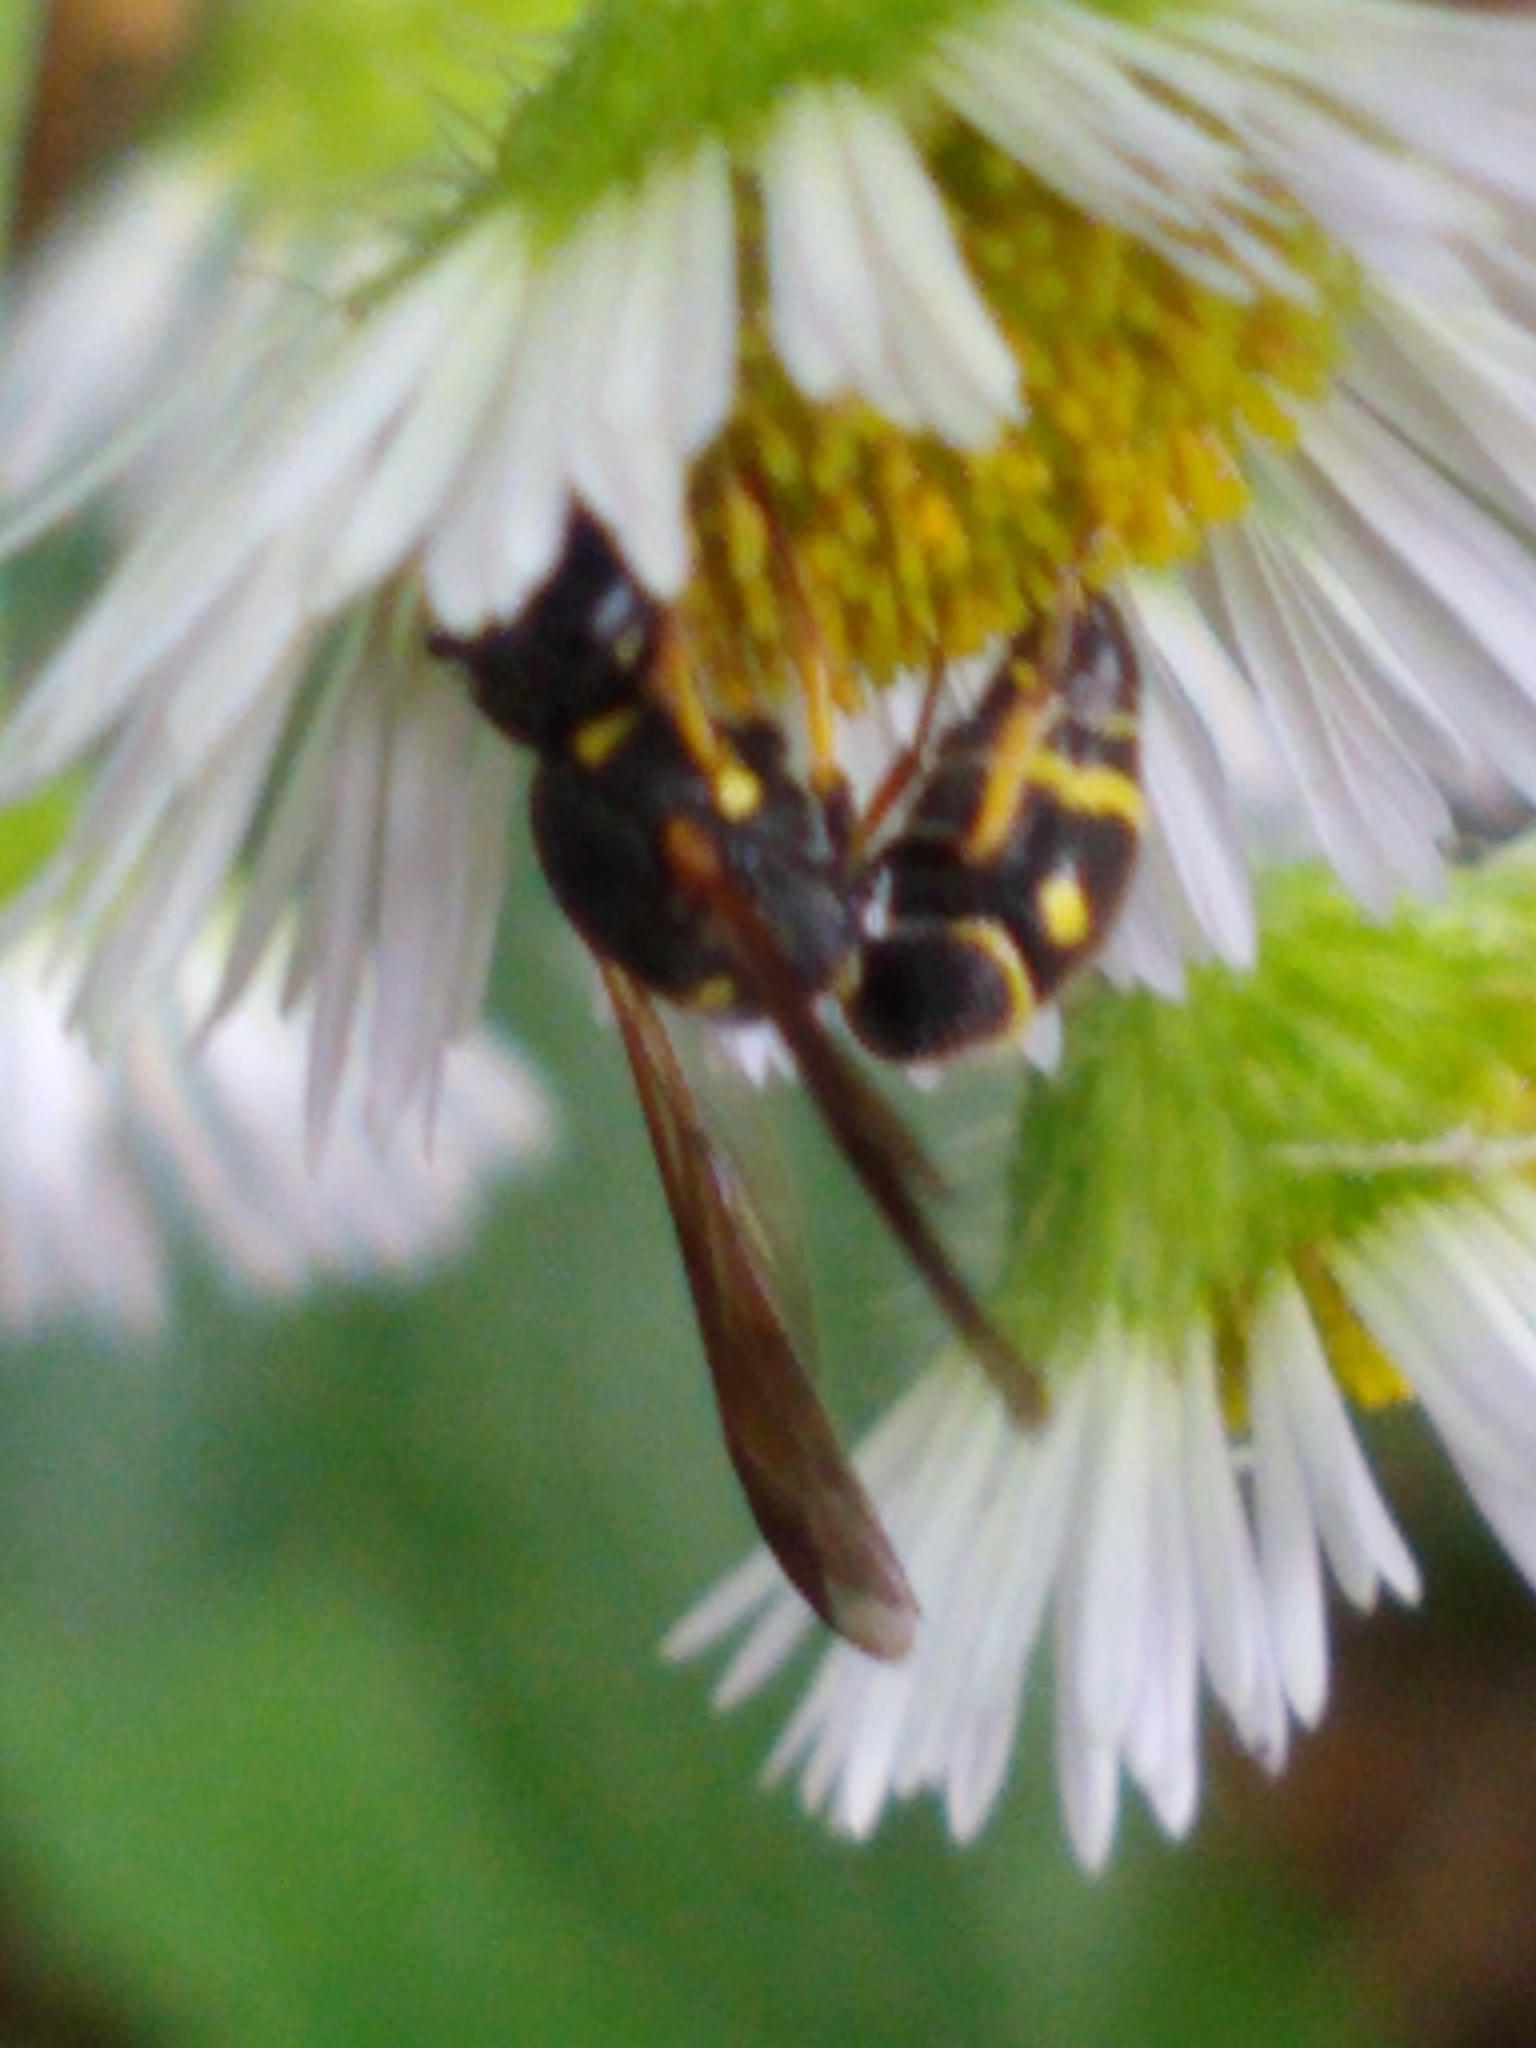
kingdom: Animalia
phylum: Arthropoda
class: Insecta
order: Hymenoptera
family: Eumenidae
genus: Parancistrocerus
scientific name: Parancistrocerus
